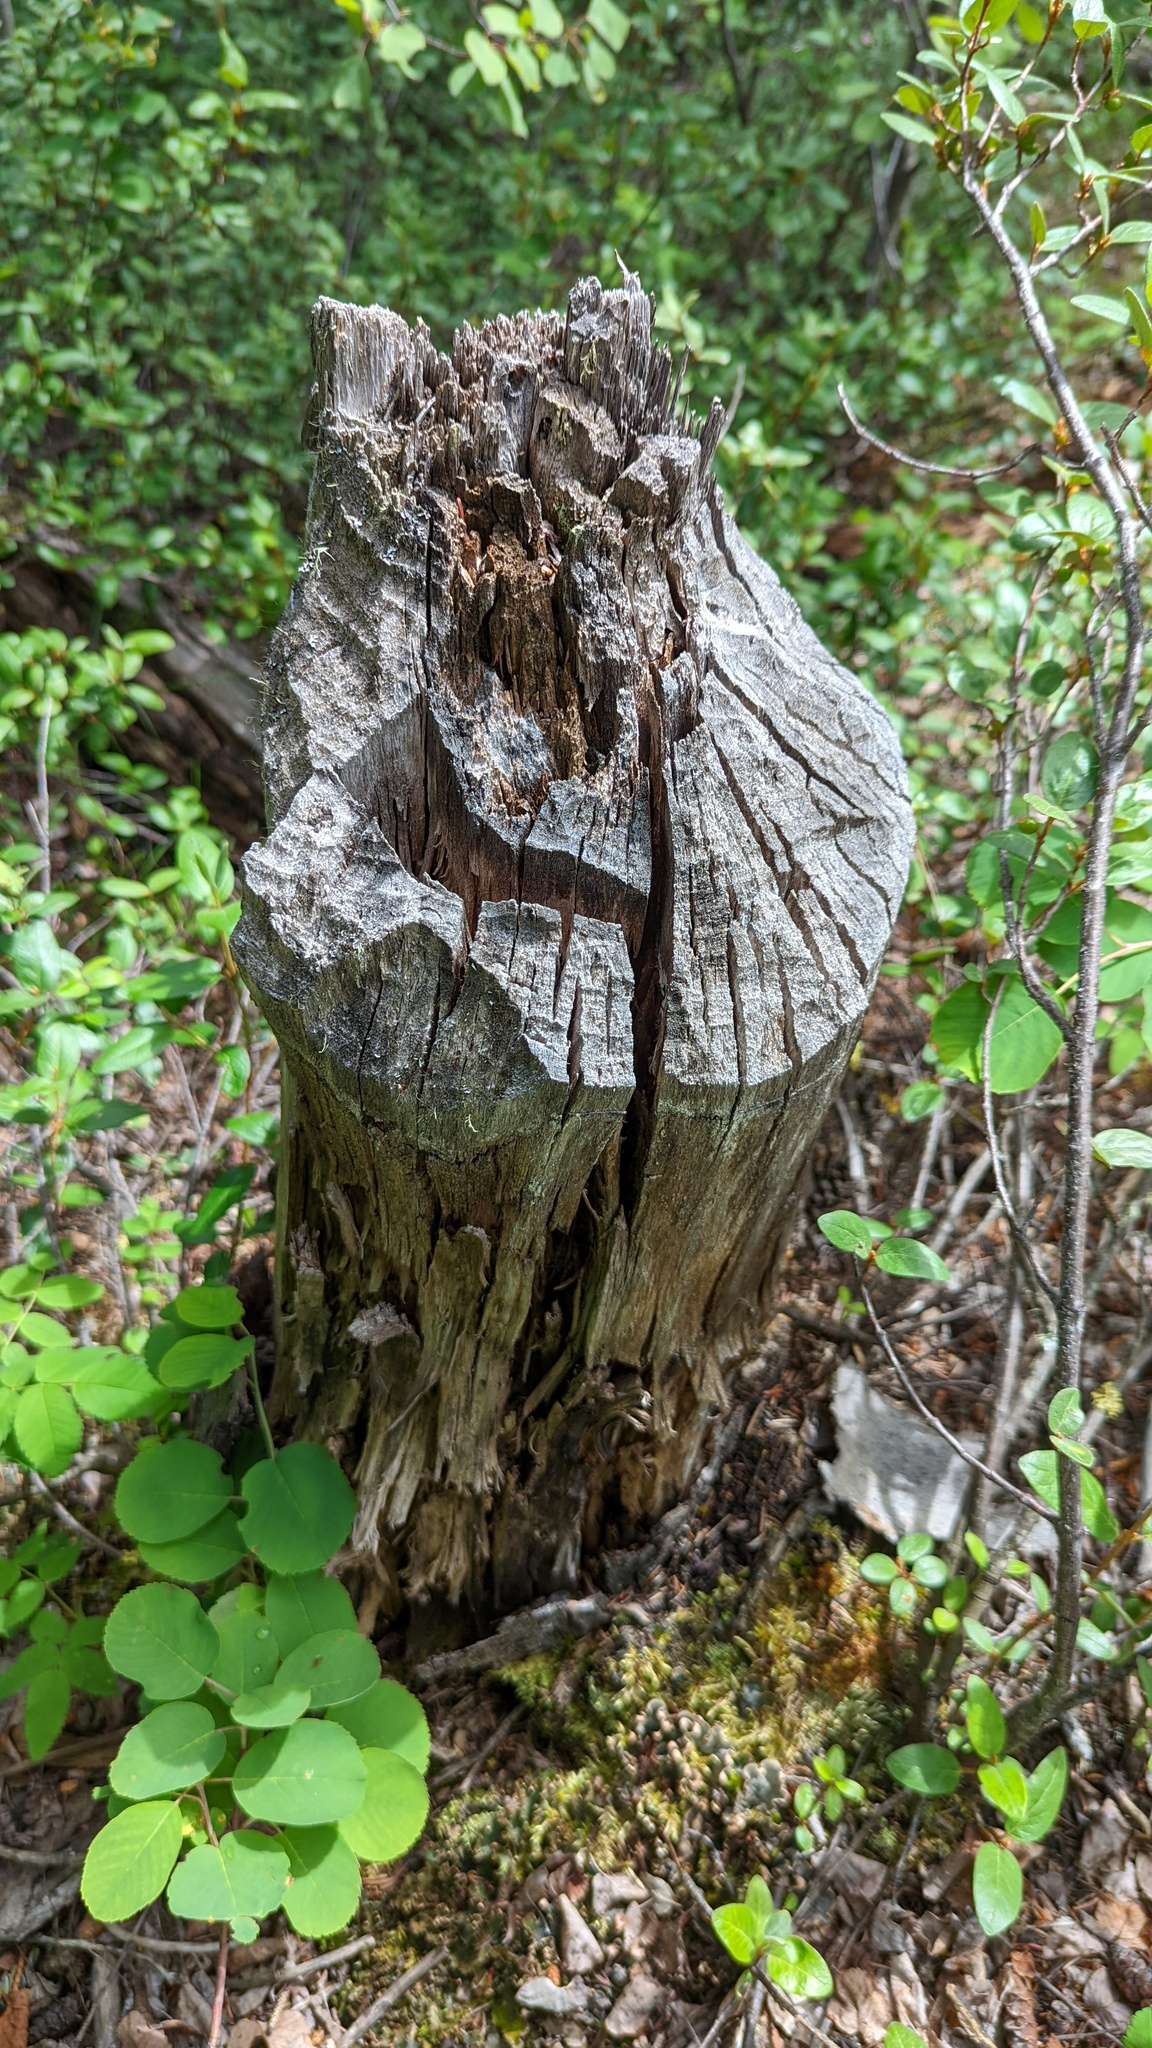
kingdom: Animalia
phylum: Chordata
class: Mammalia
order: Rodentia
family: Castoridae
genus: Castor
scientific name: Castor canadensis
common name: American beaver
